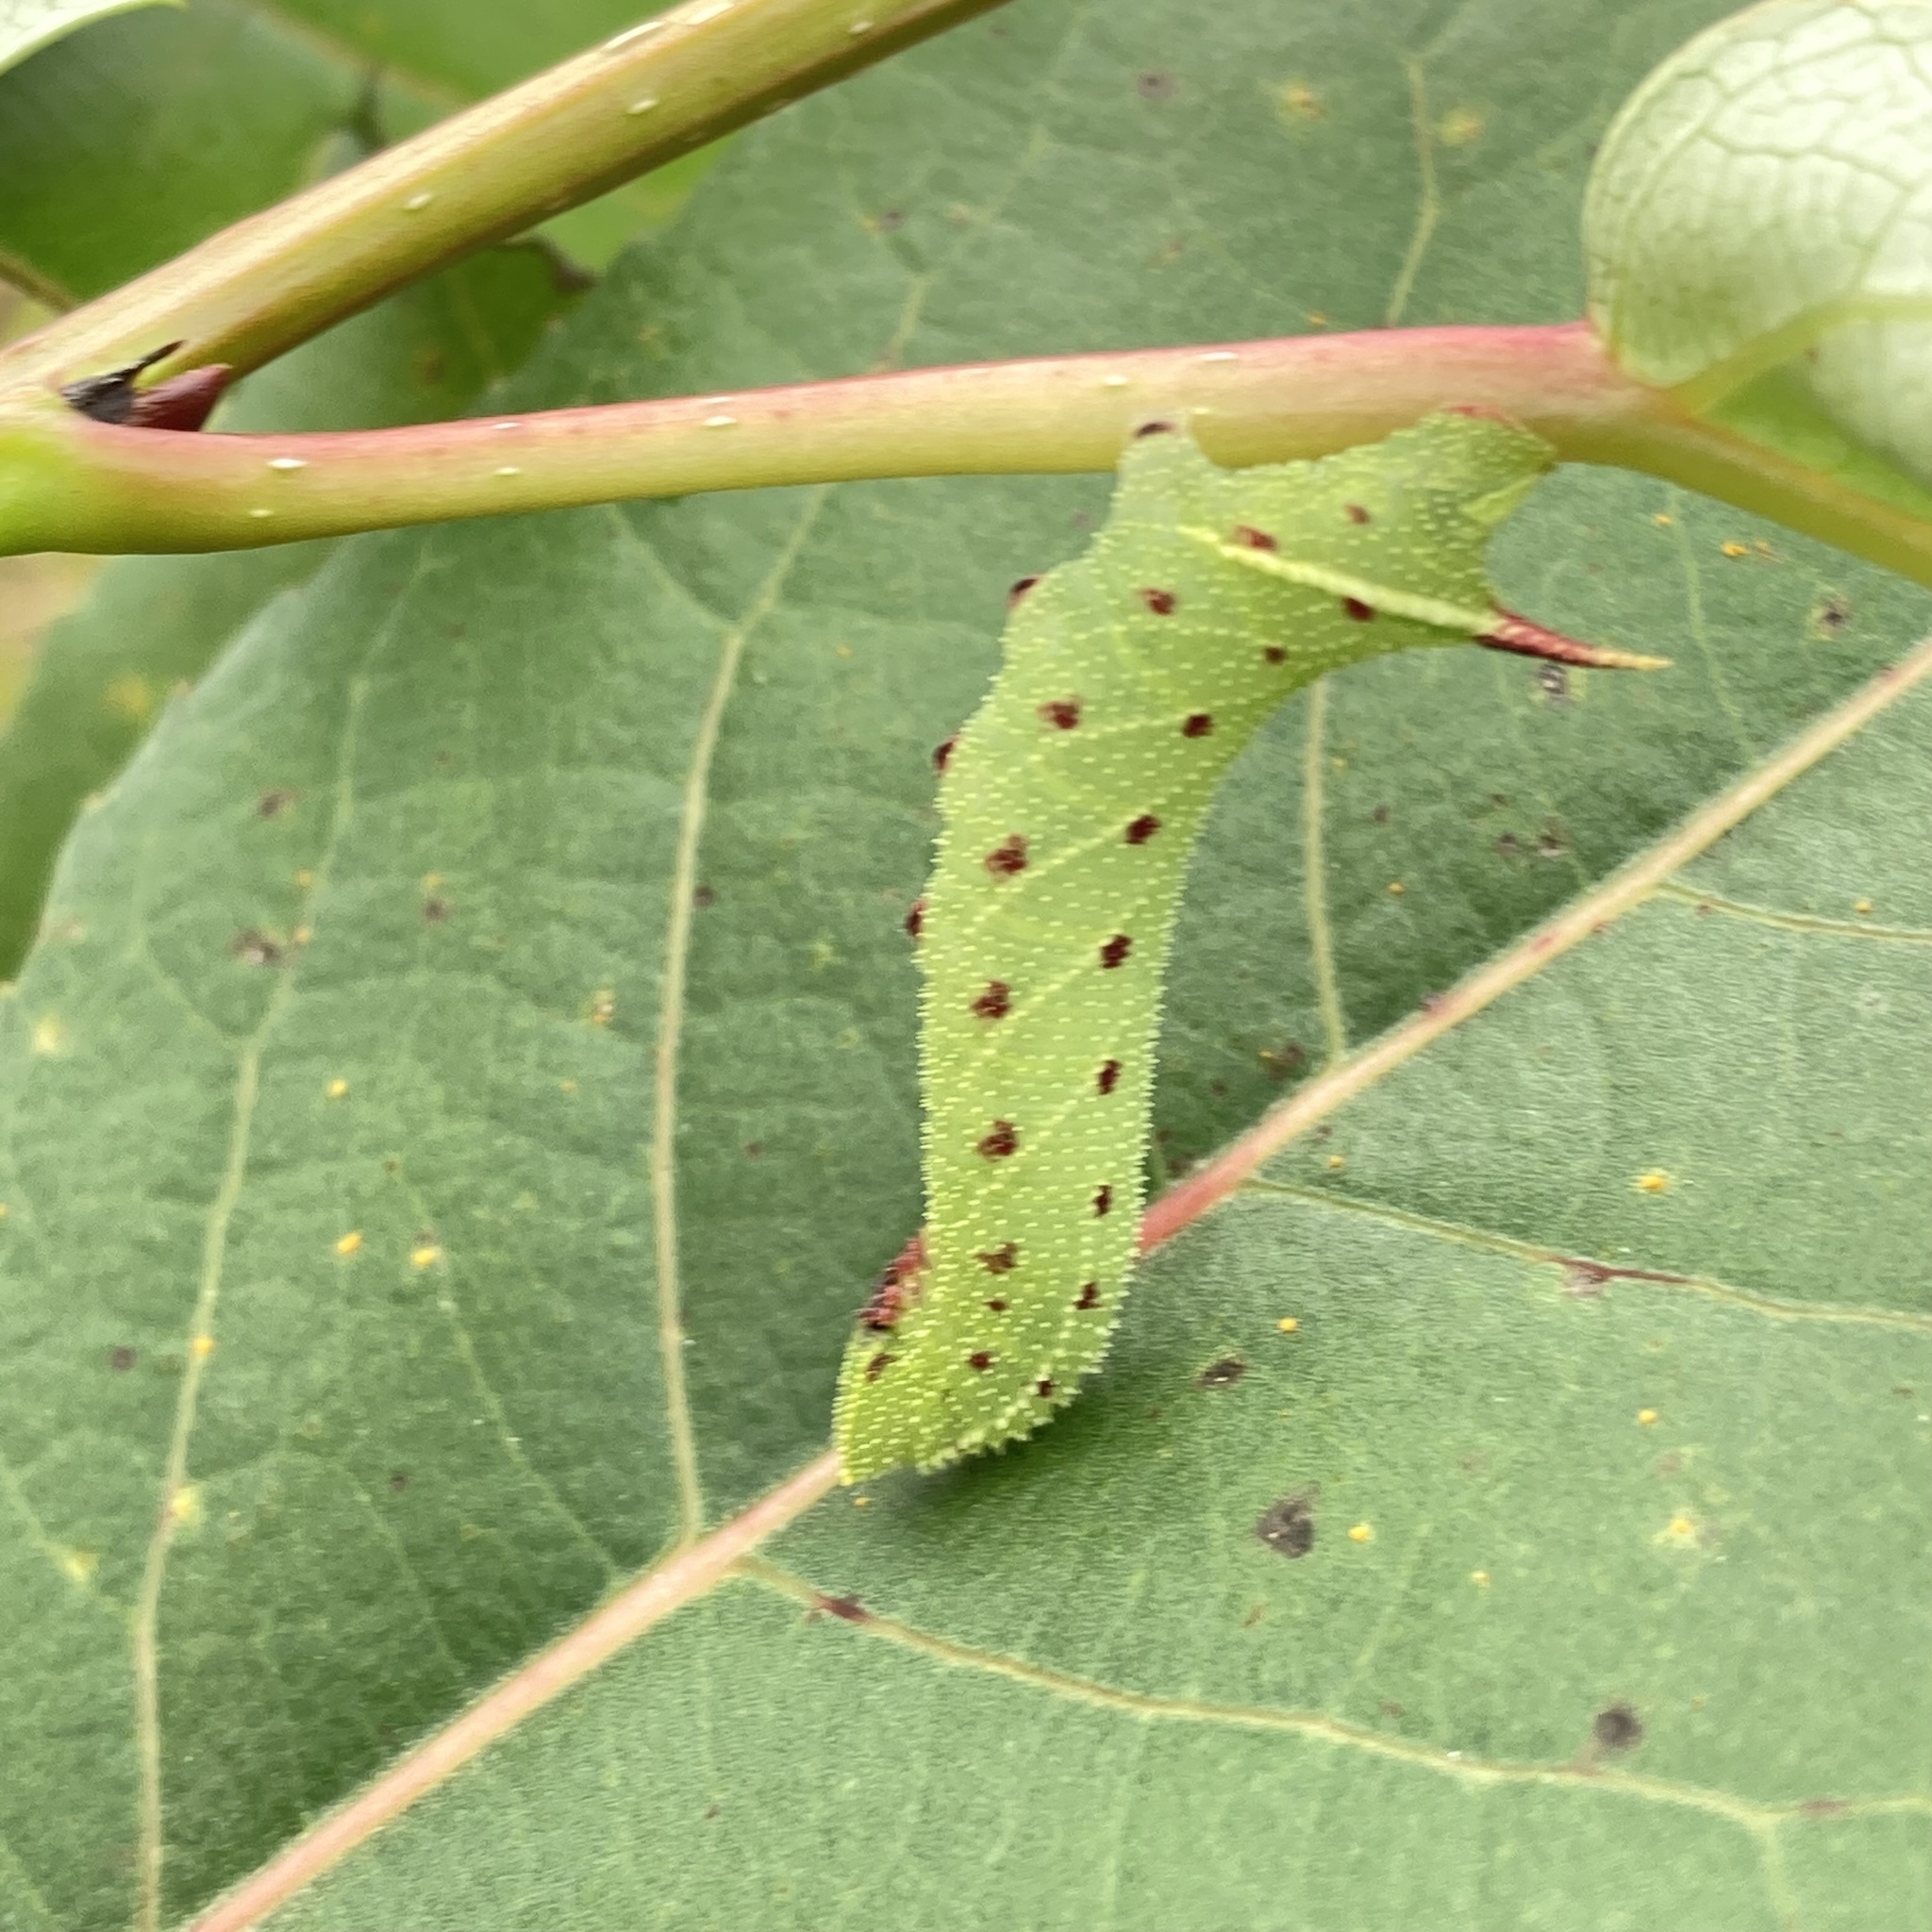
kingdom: Animalia
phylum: Arthropoda
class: Insecta
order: Lepidoptera
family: Sphingidae
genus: Smerinthus
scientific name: Smerinthus jamaicensis
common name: Twin spotted sphinx
